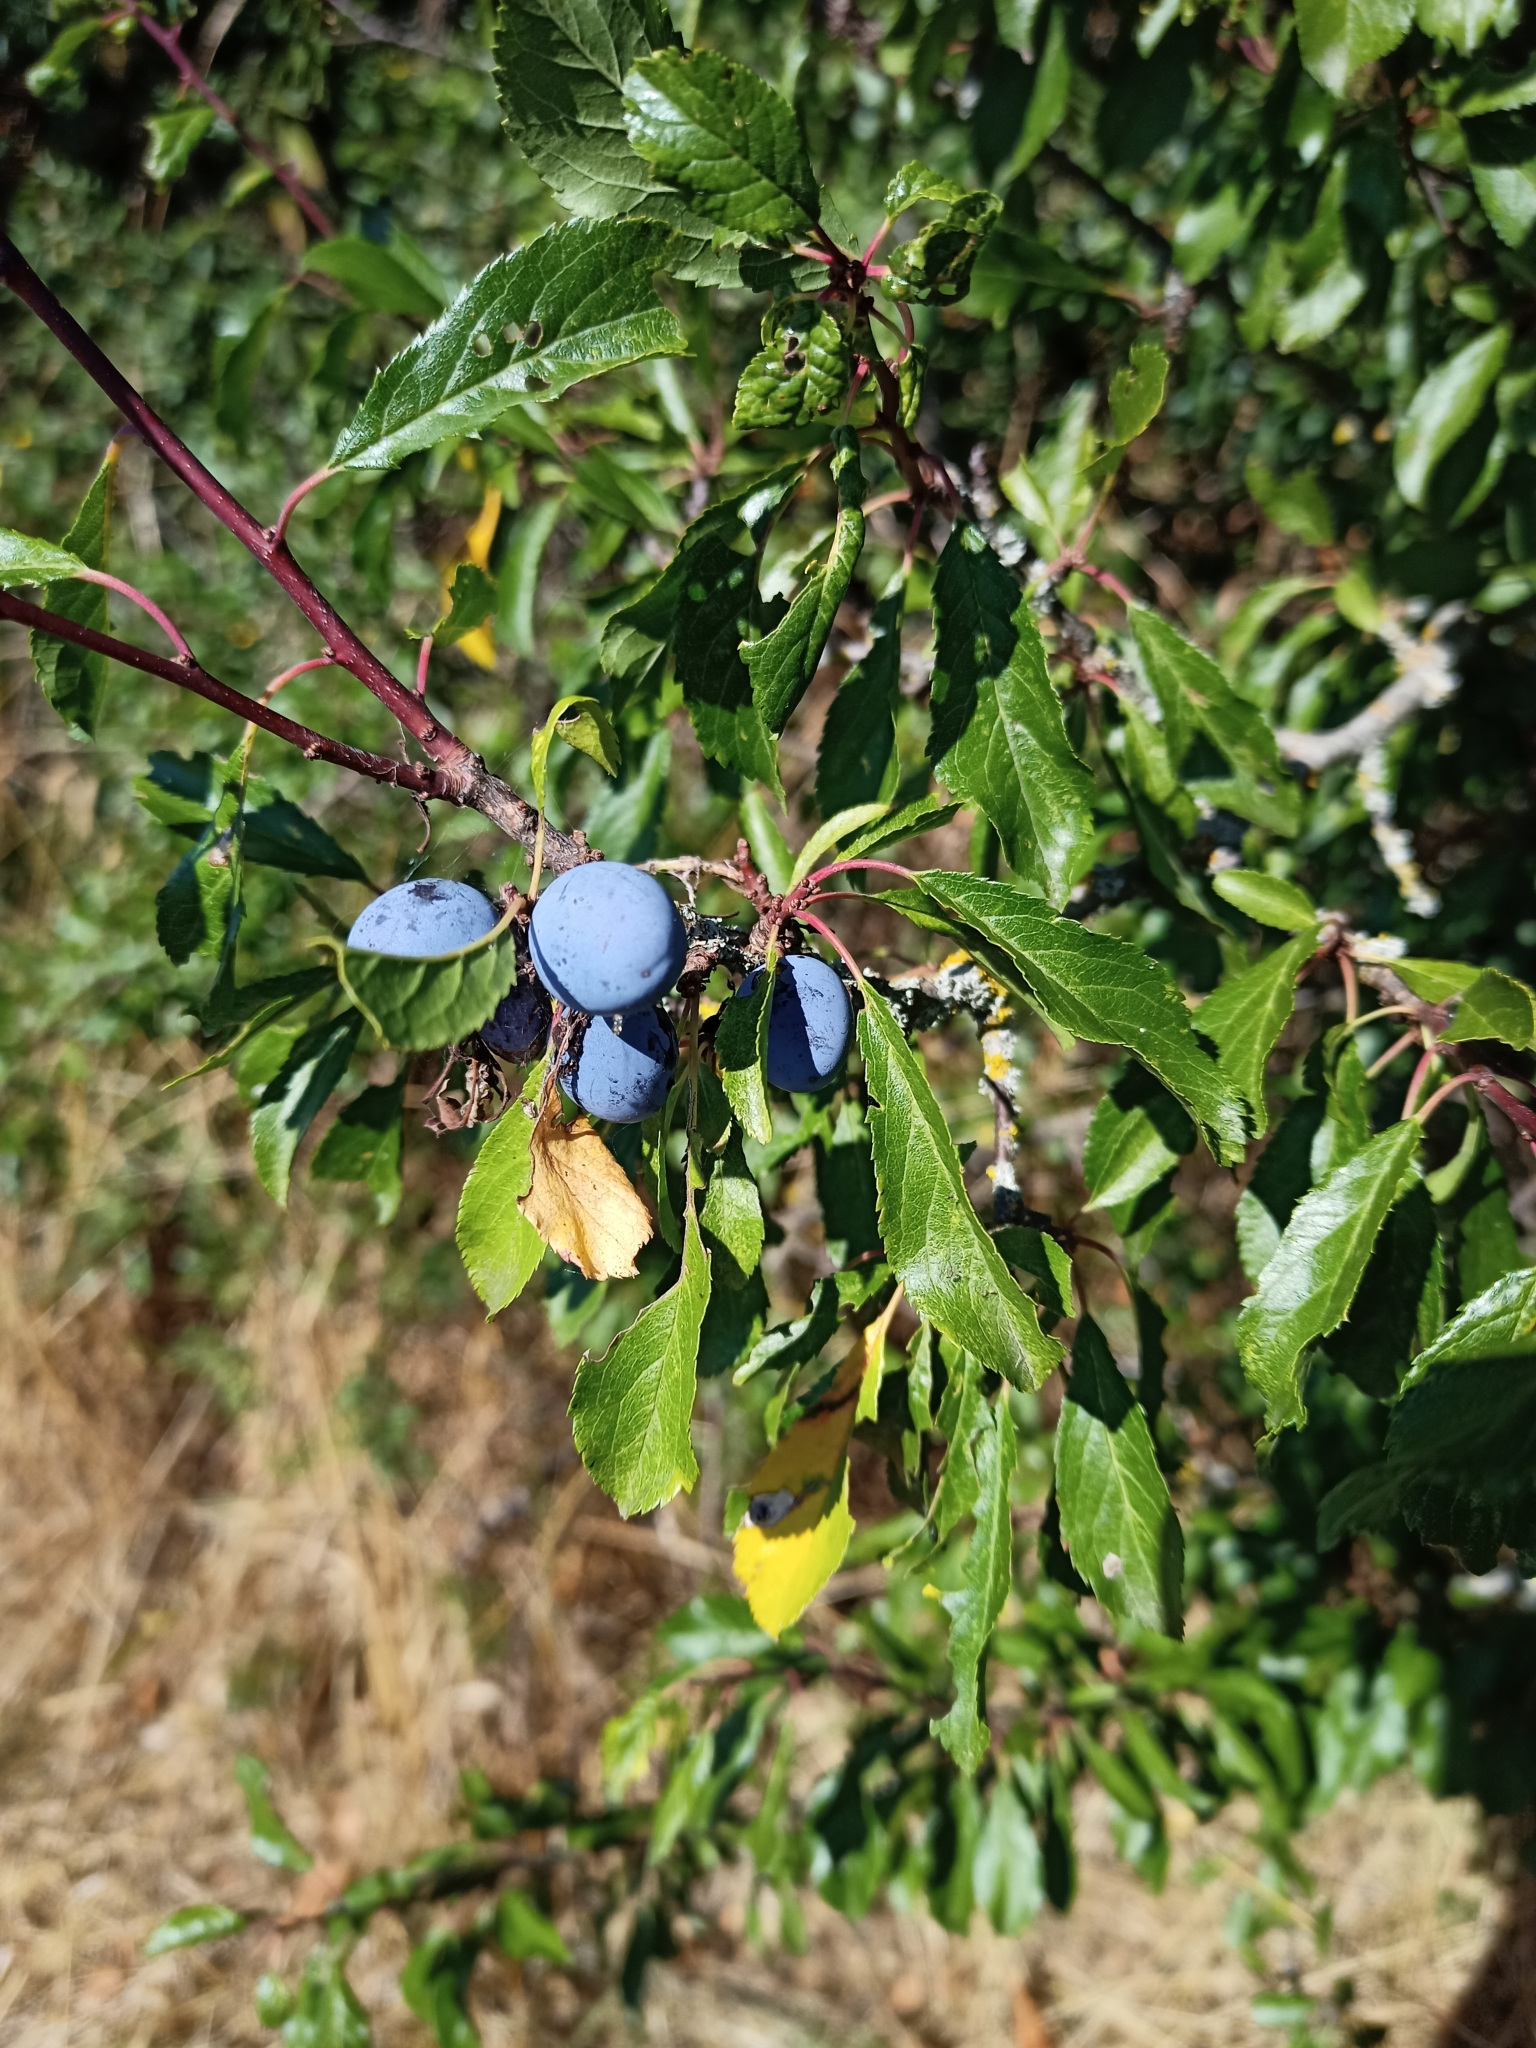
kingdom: Plantae
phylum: Tracheophyta
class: Magnoliopsida
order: Rosales
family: Rosaceae
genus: Prunus
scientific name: Prunus spinosa
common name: Blackthorn
